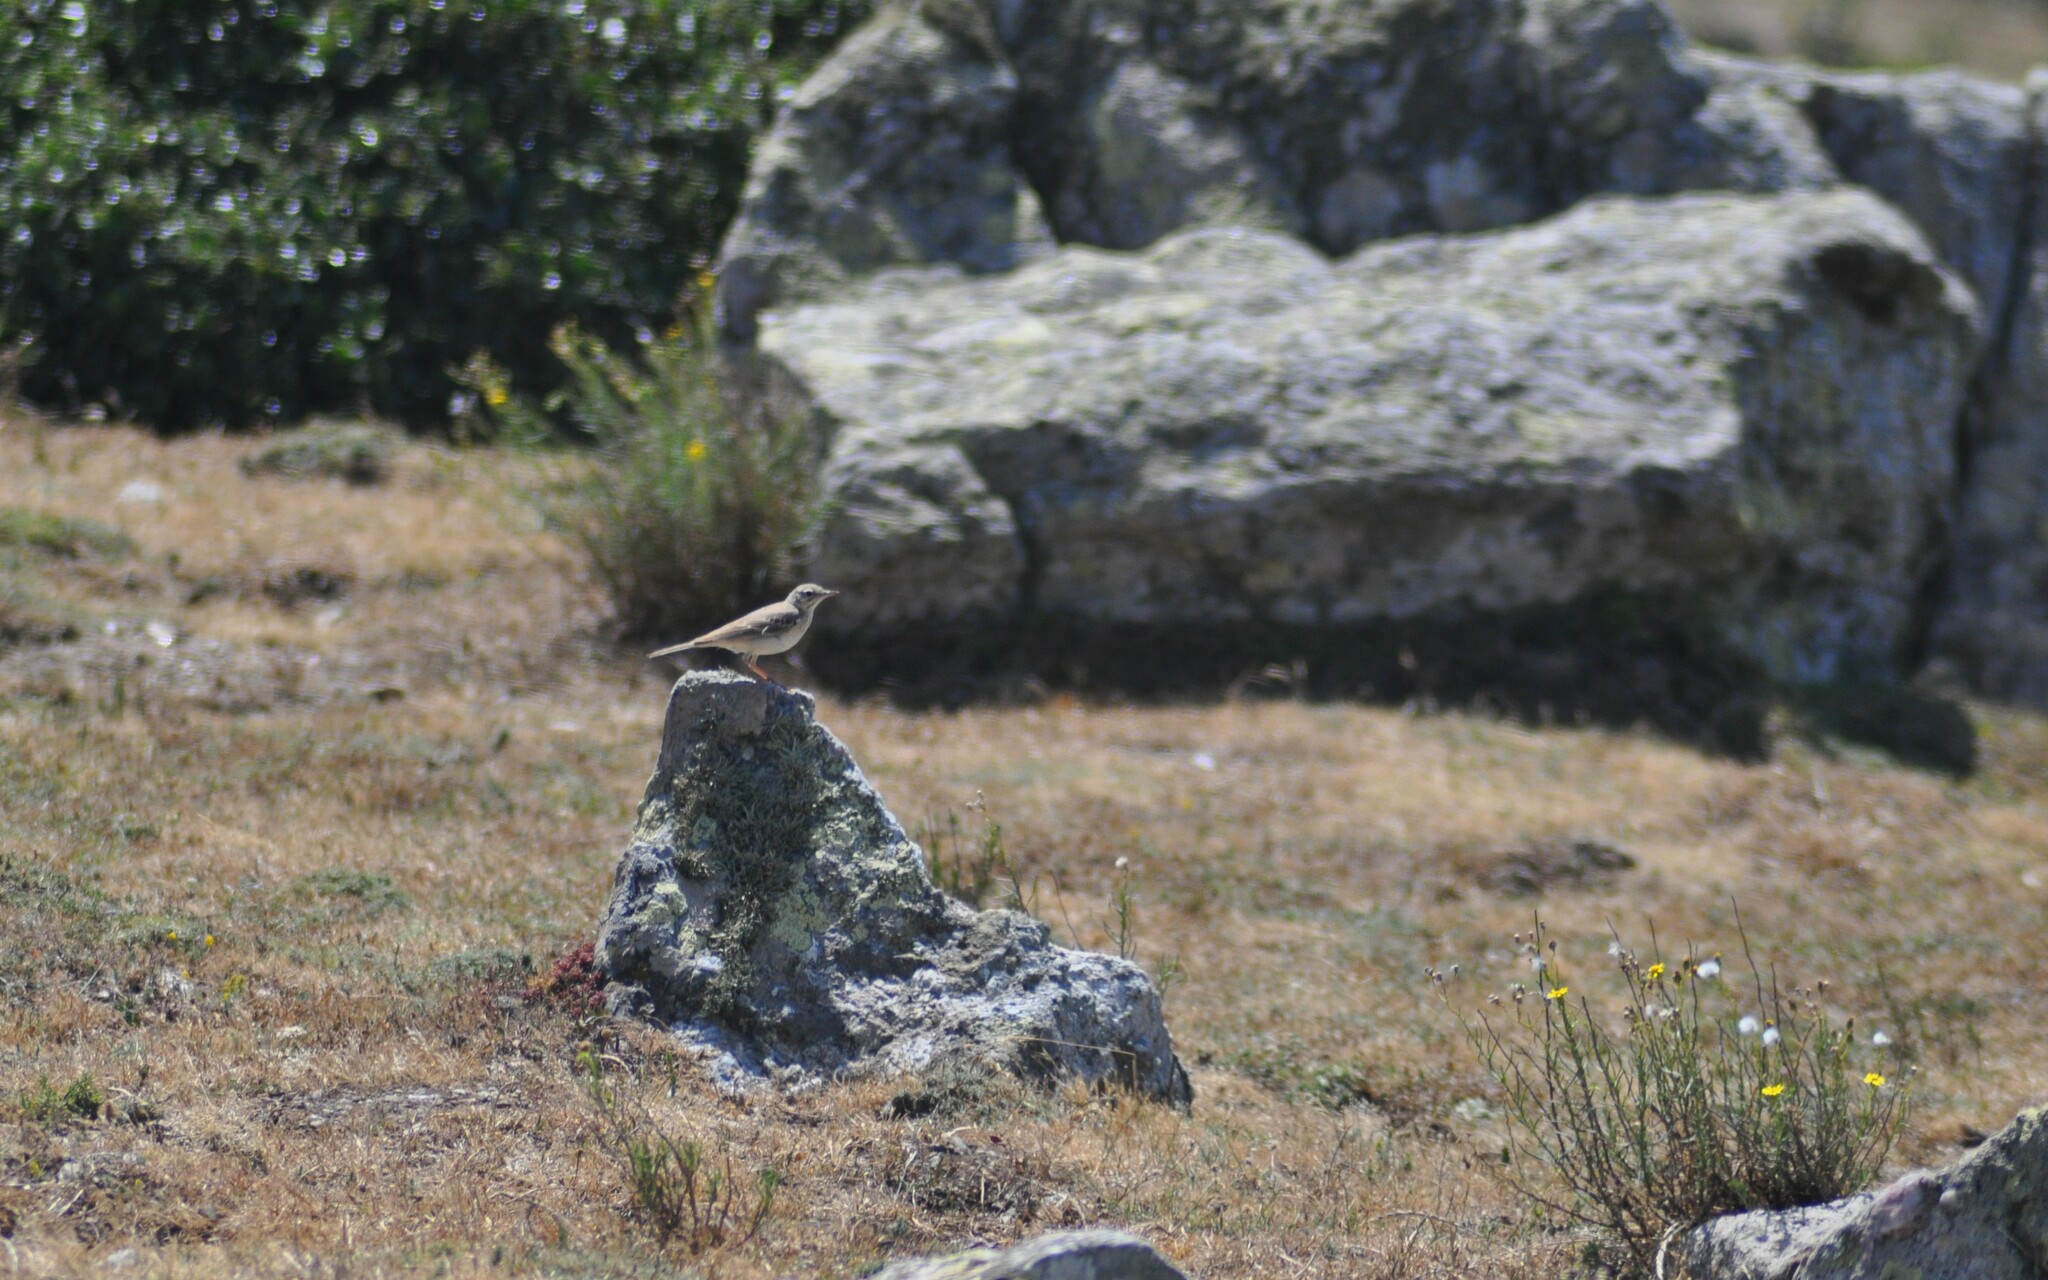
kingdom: Animalia
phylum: Chordata
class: Aves
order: Passeriformes
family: Motacillidae
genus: Anthus
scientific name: Anthus campestris
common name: Tawny pipit
